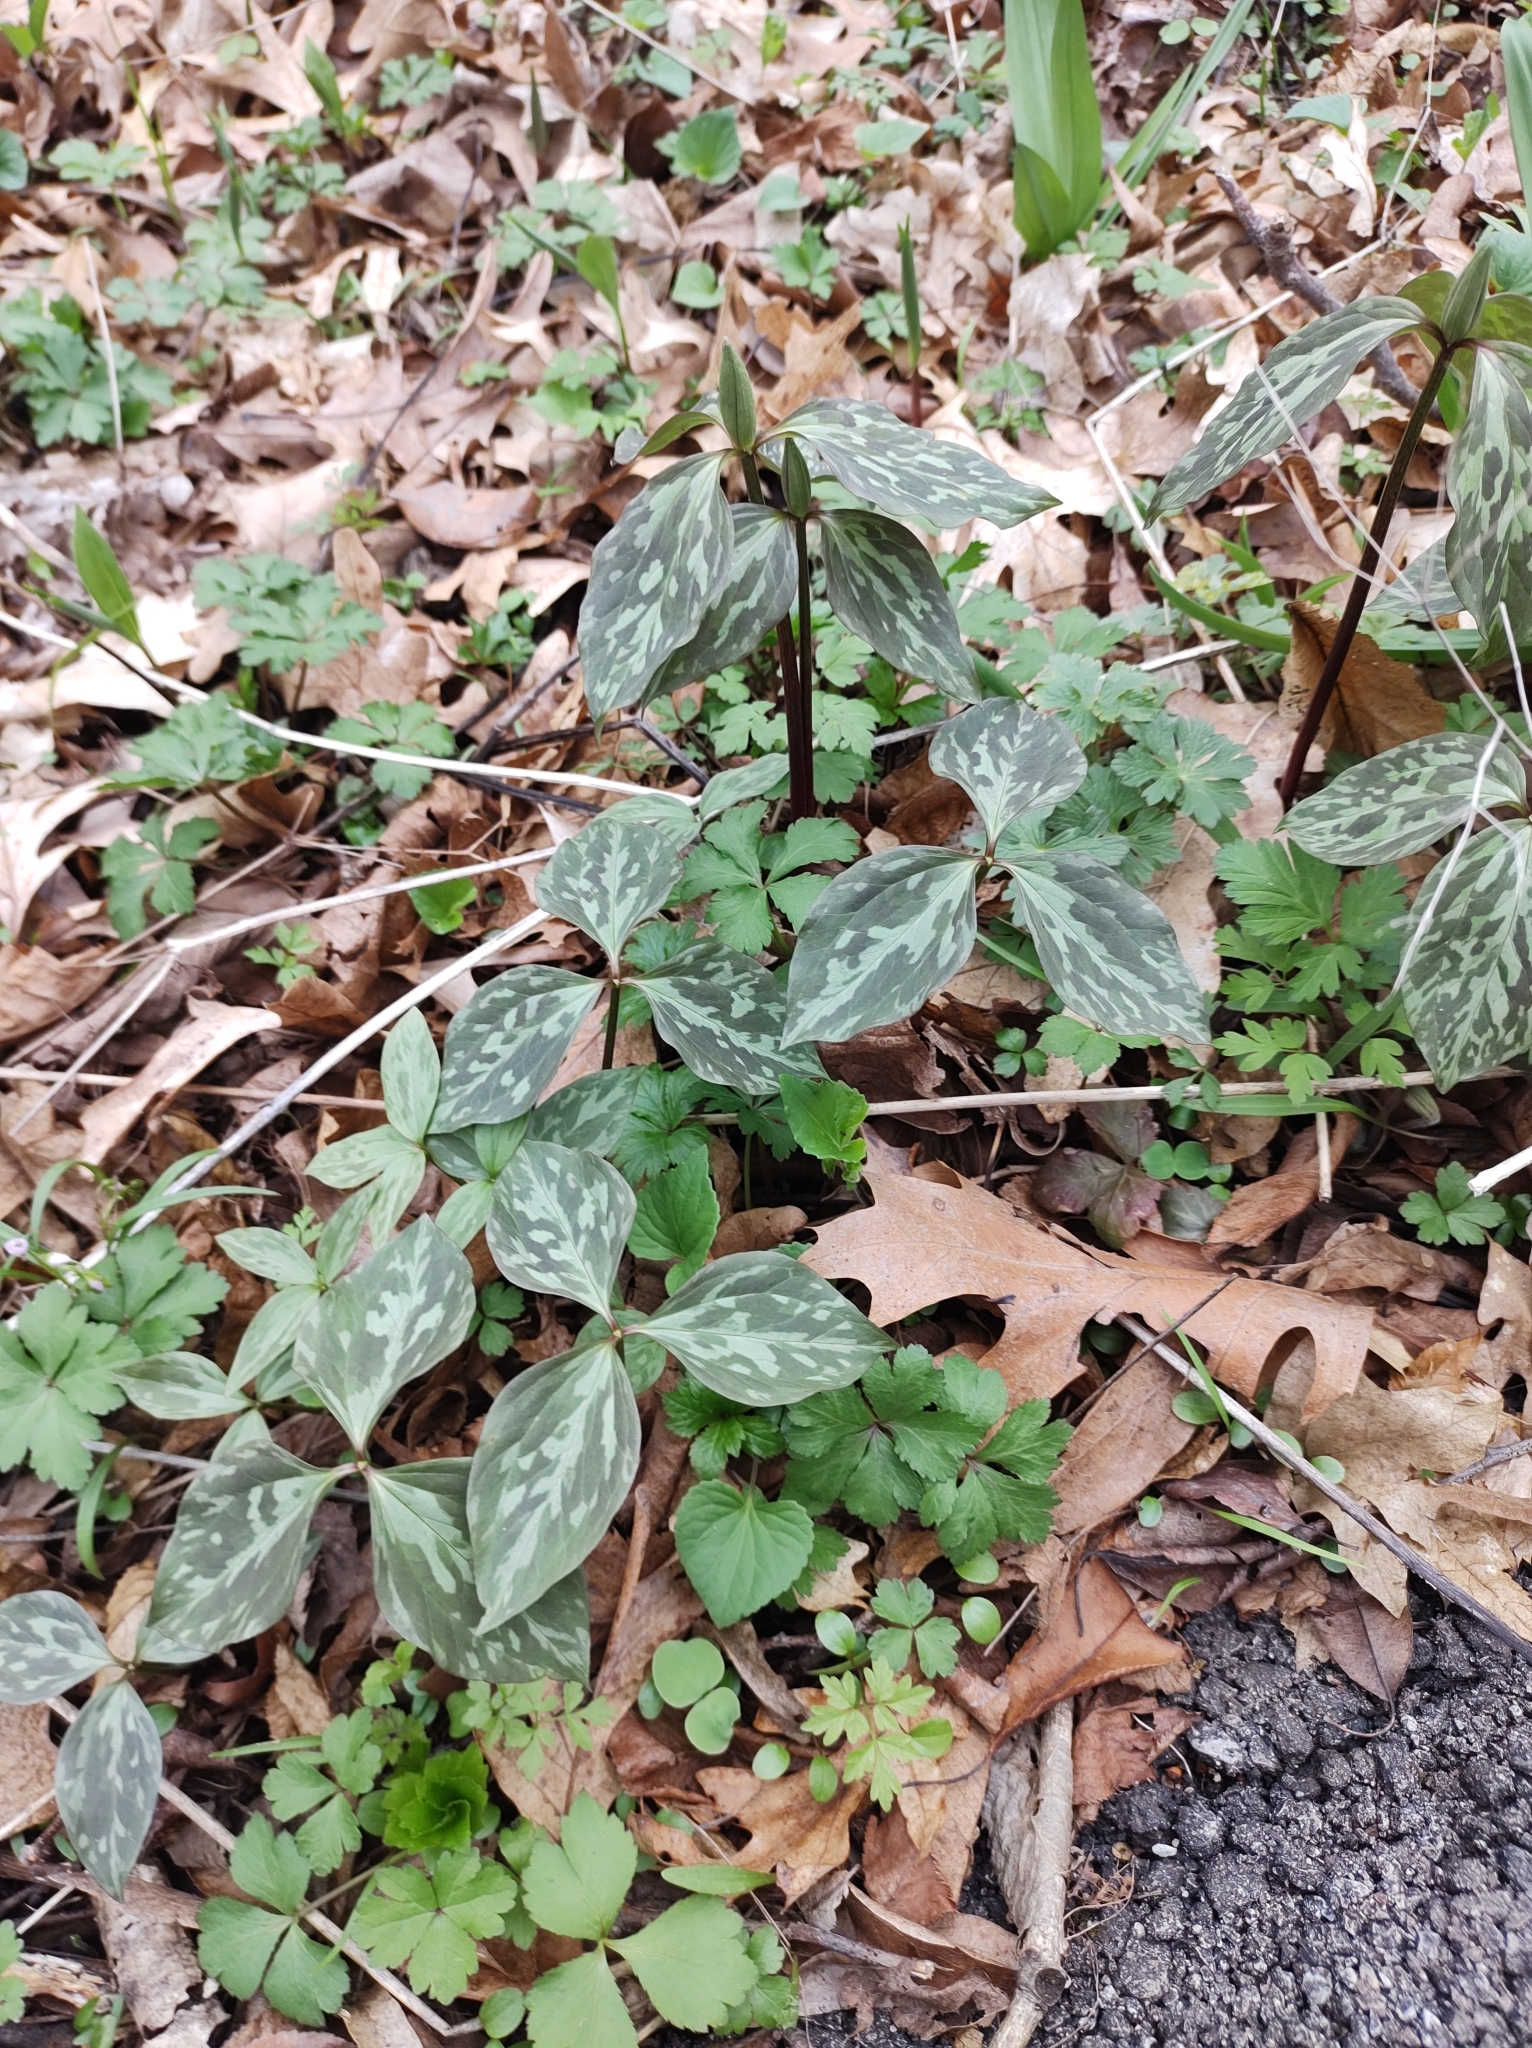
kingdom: Plantae
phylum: Tracheophyta
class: Liliopsida
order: Liliales
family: Melanthiaceae
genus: Trillium
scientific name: Trillium recurvatum
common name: Bloody butcher
